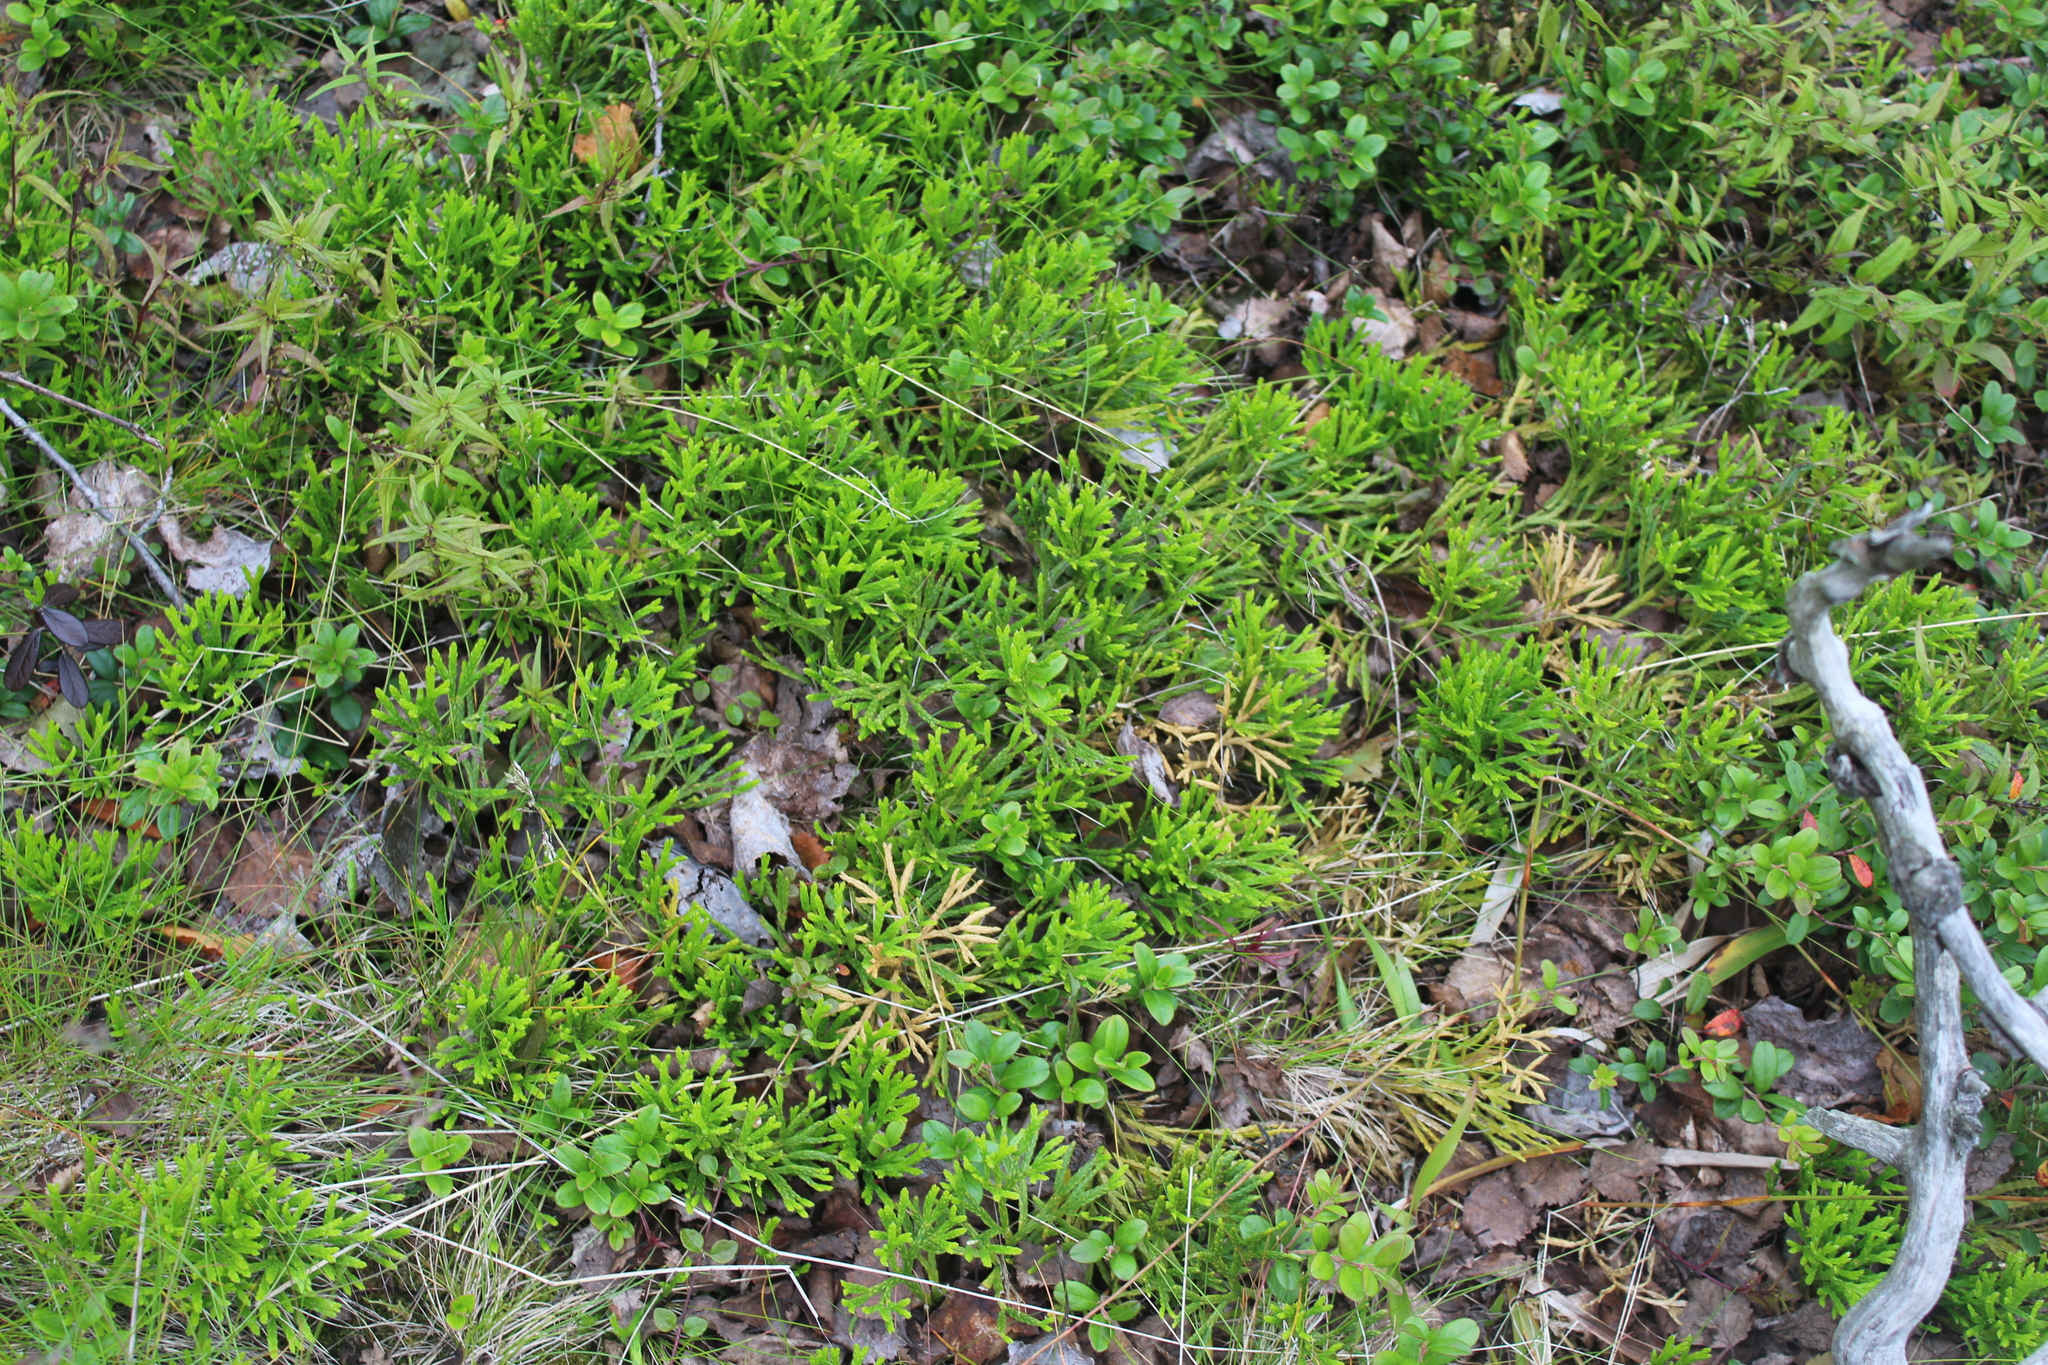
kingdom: Plantae
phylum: Tracheophyta
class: Lycopodiopsida
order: Lycopodiales
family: Lycopodiaceae
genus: Diphasiastrum
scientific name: Diphasiastrum complanatum
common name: Northern running-pine
